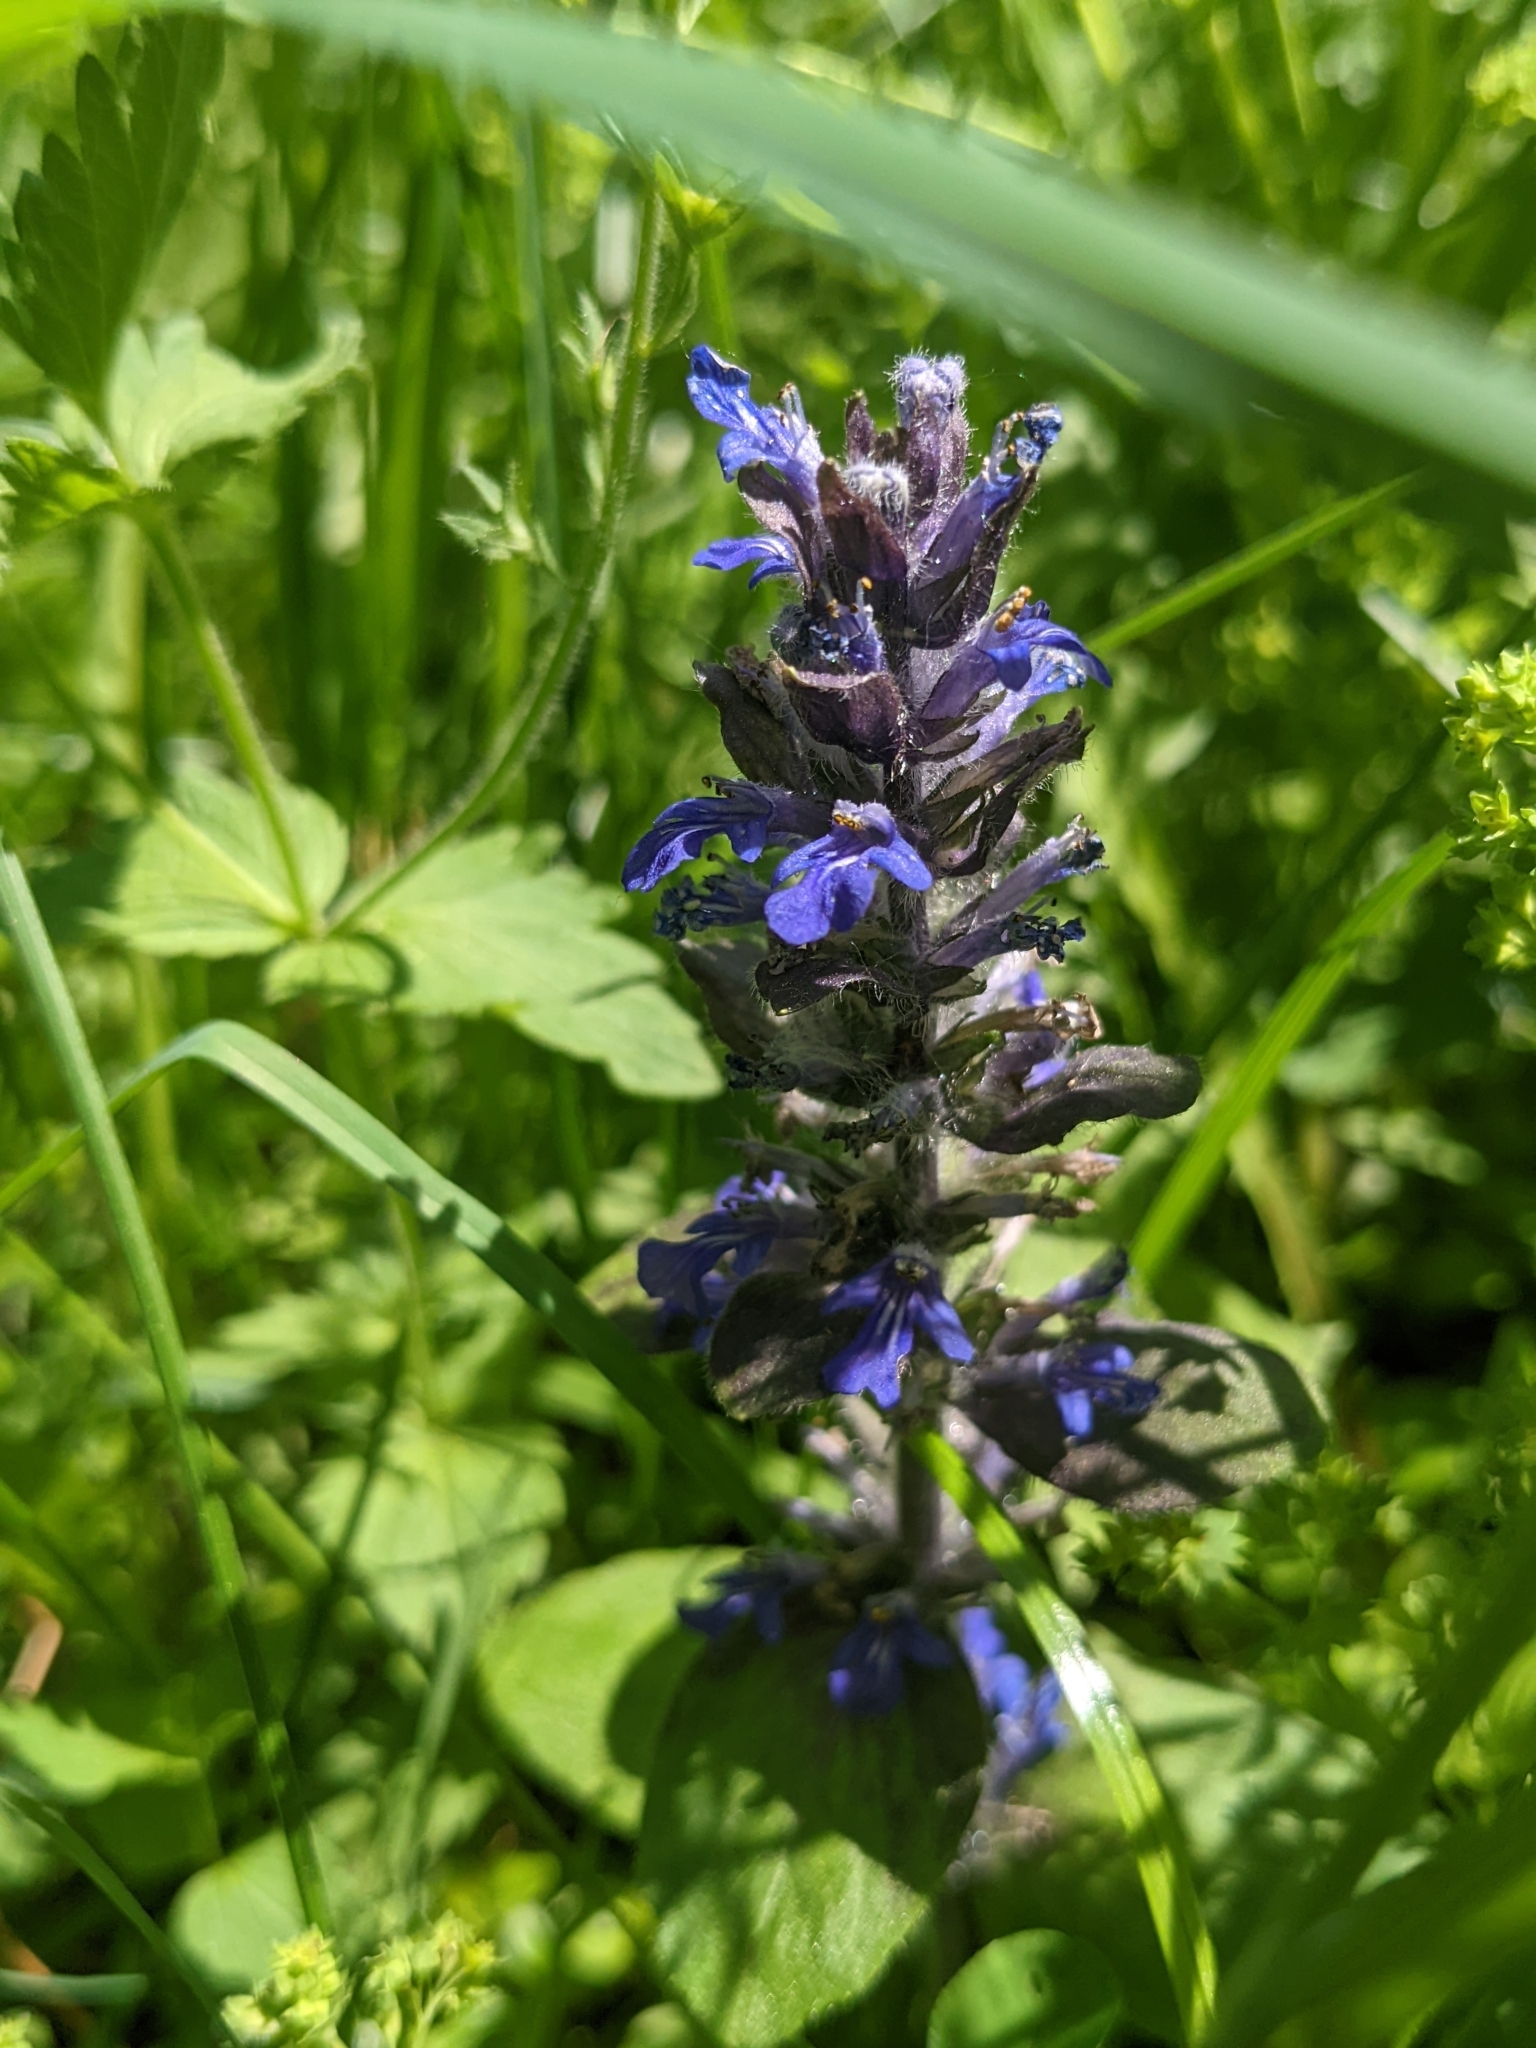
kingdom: Plantae
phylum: Tracheophyta
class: Magnoliopsida
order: Lamiales
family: Lamiaceae
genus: Ajuga
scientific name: Ajuga reptans
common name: Bugle
